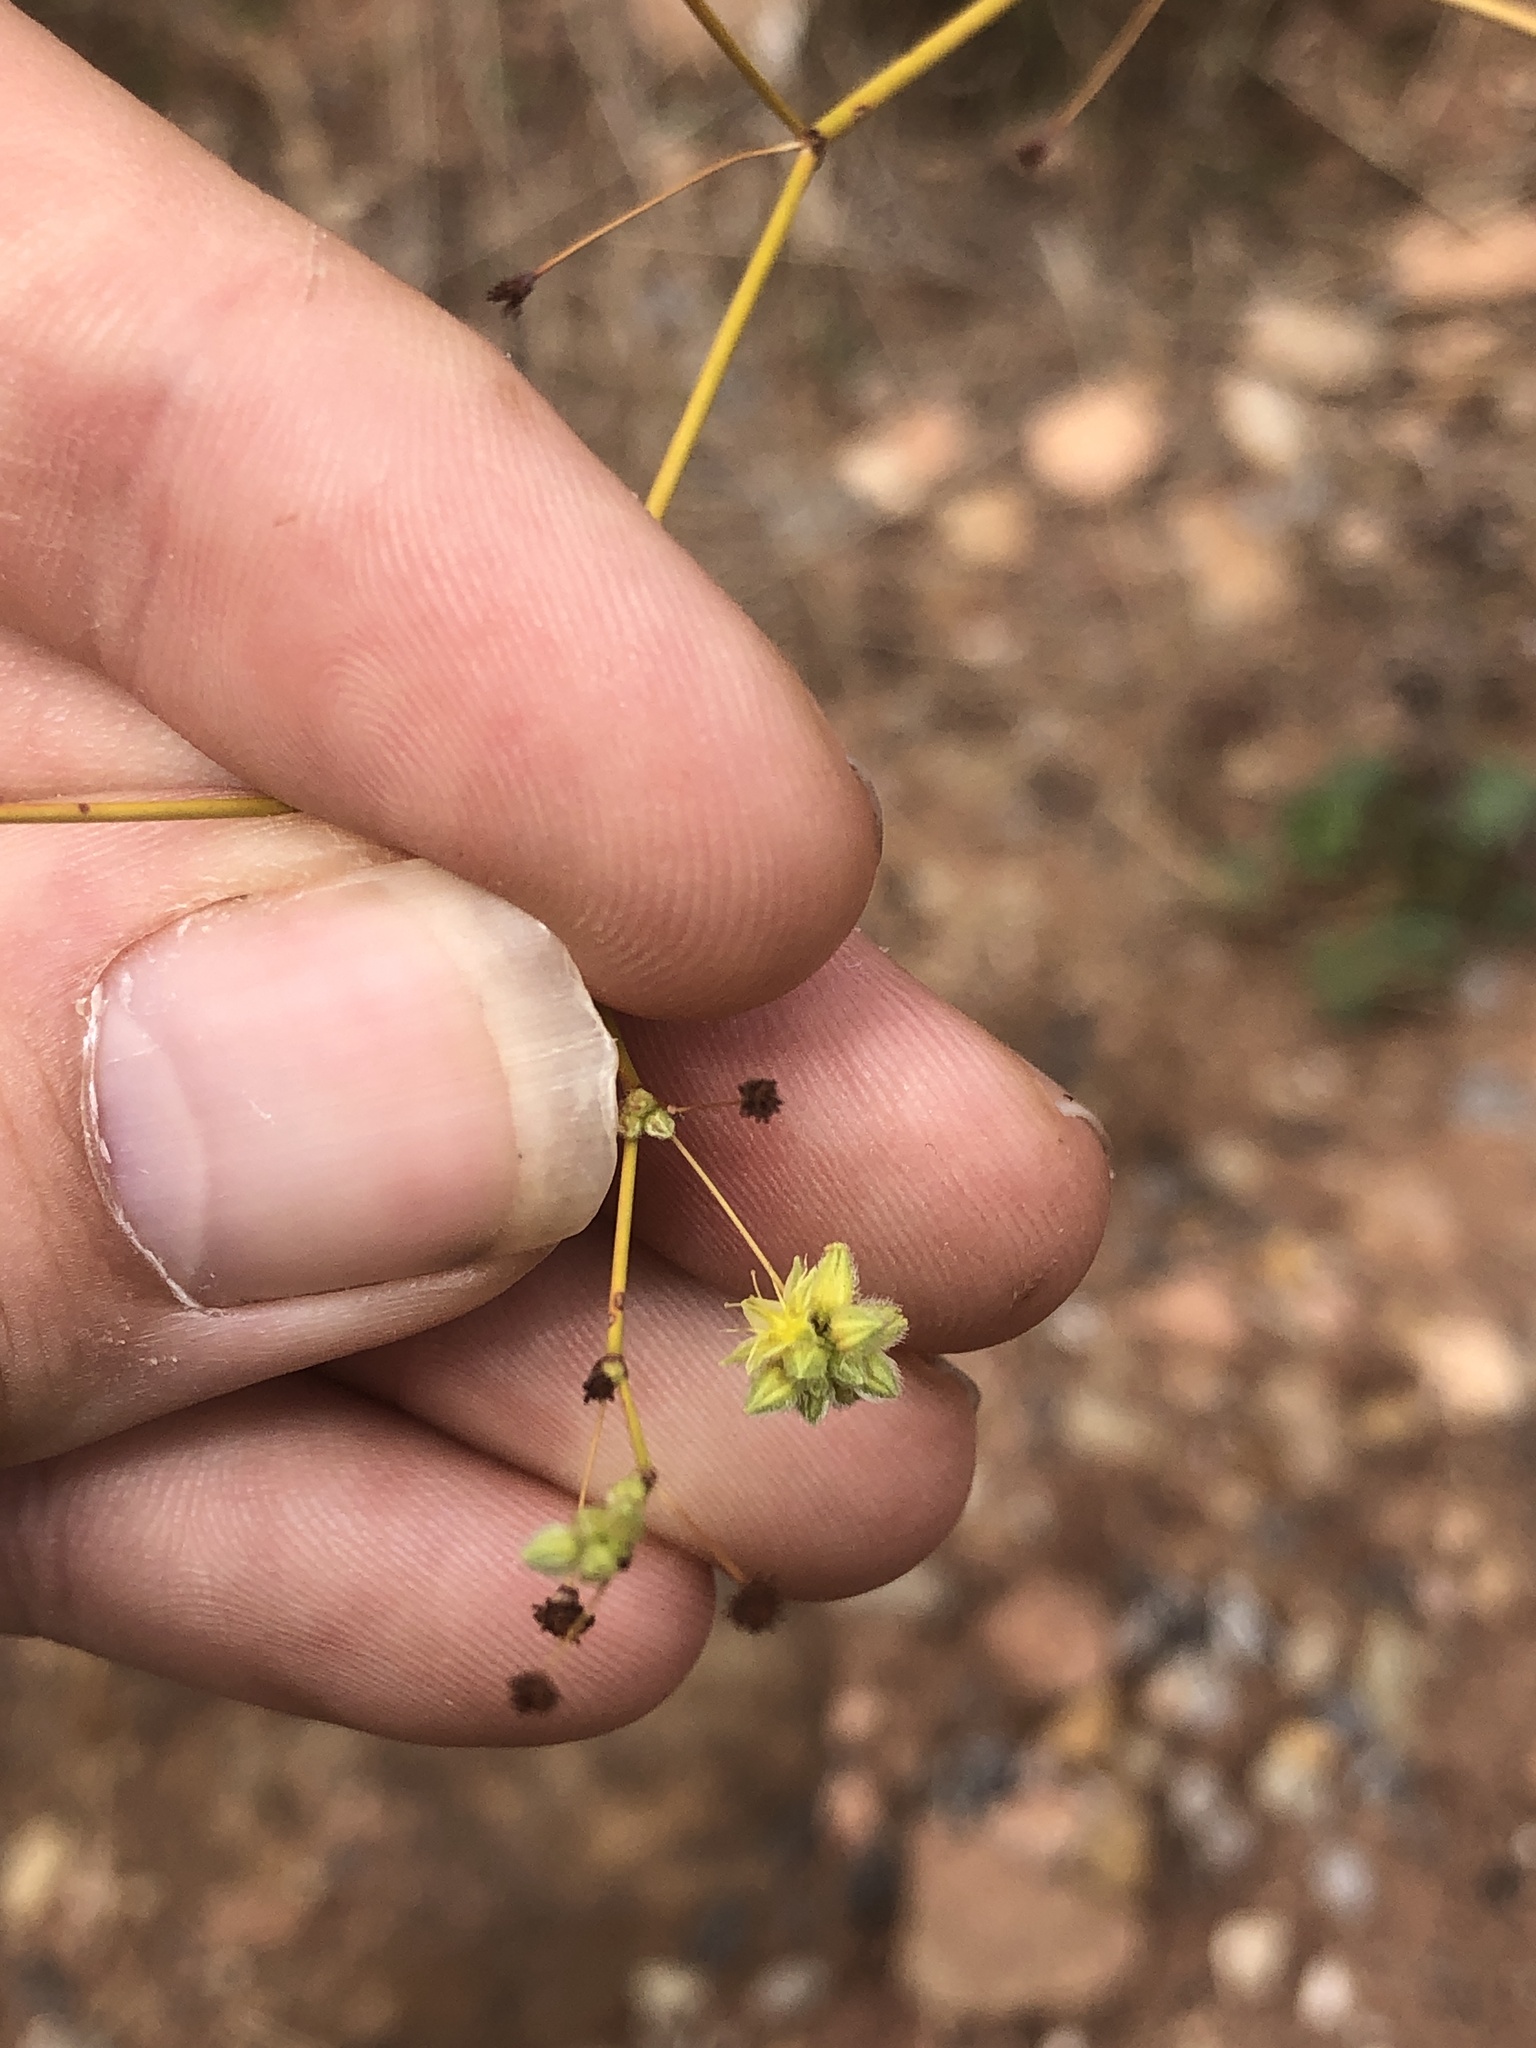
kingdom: Plantae
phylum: Tracheophyta
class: Magnoliopsida
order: Caryophyllales
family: Polygonaceae
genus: Eriogonum
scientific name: Eriogonum inflatum
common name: Desert trumpet
